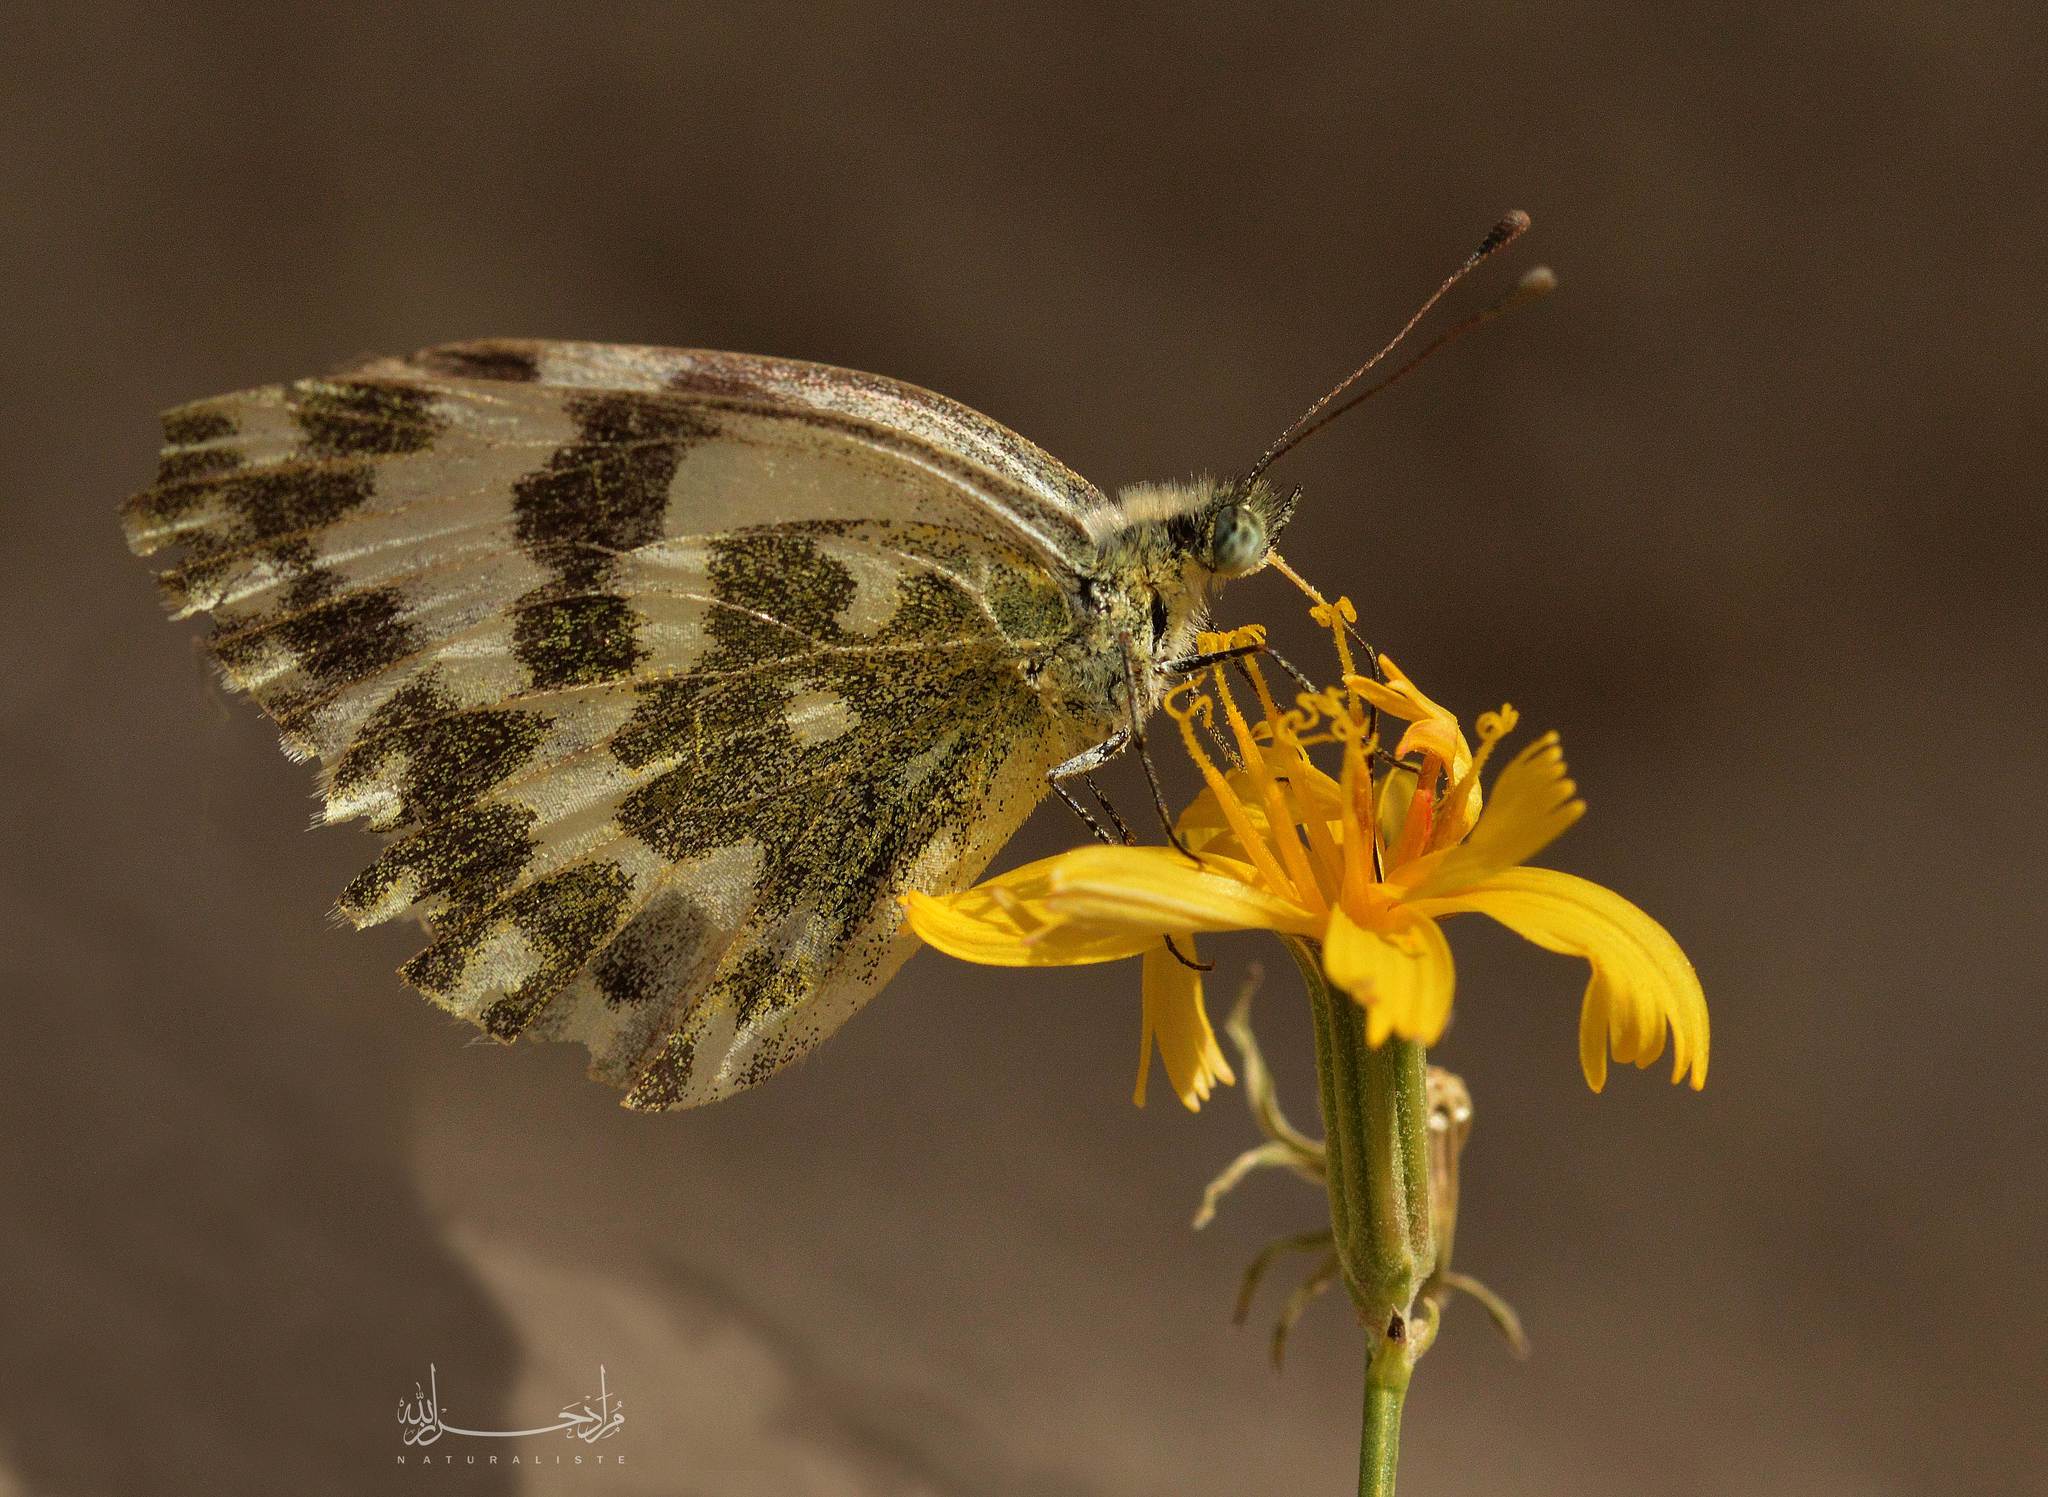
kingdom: Animalia
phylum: Arthropoda
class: Insecta
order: Lepidoptera
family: Pieridae
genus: Pontia
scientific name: Pontia daplidice
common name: Bath white
